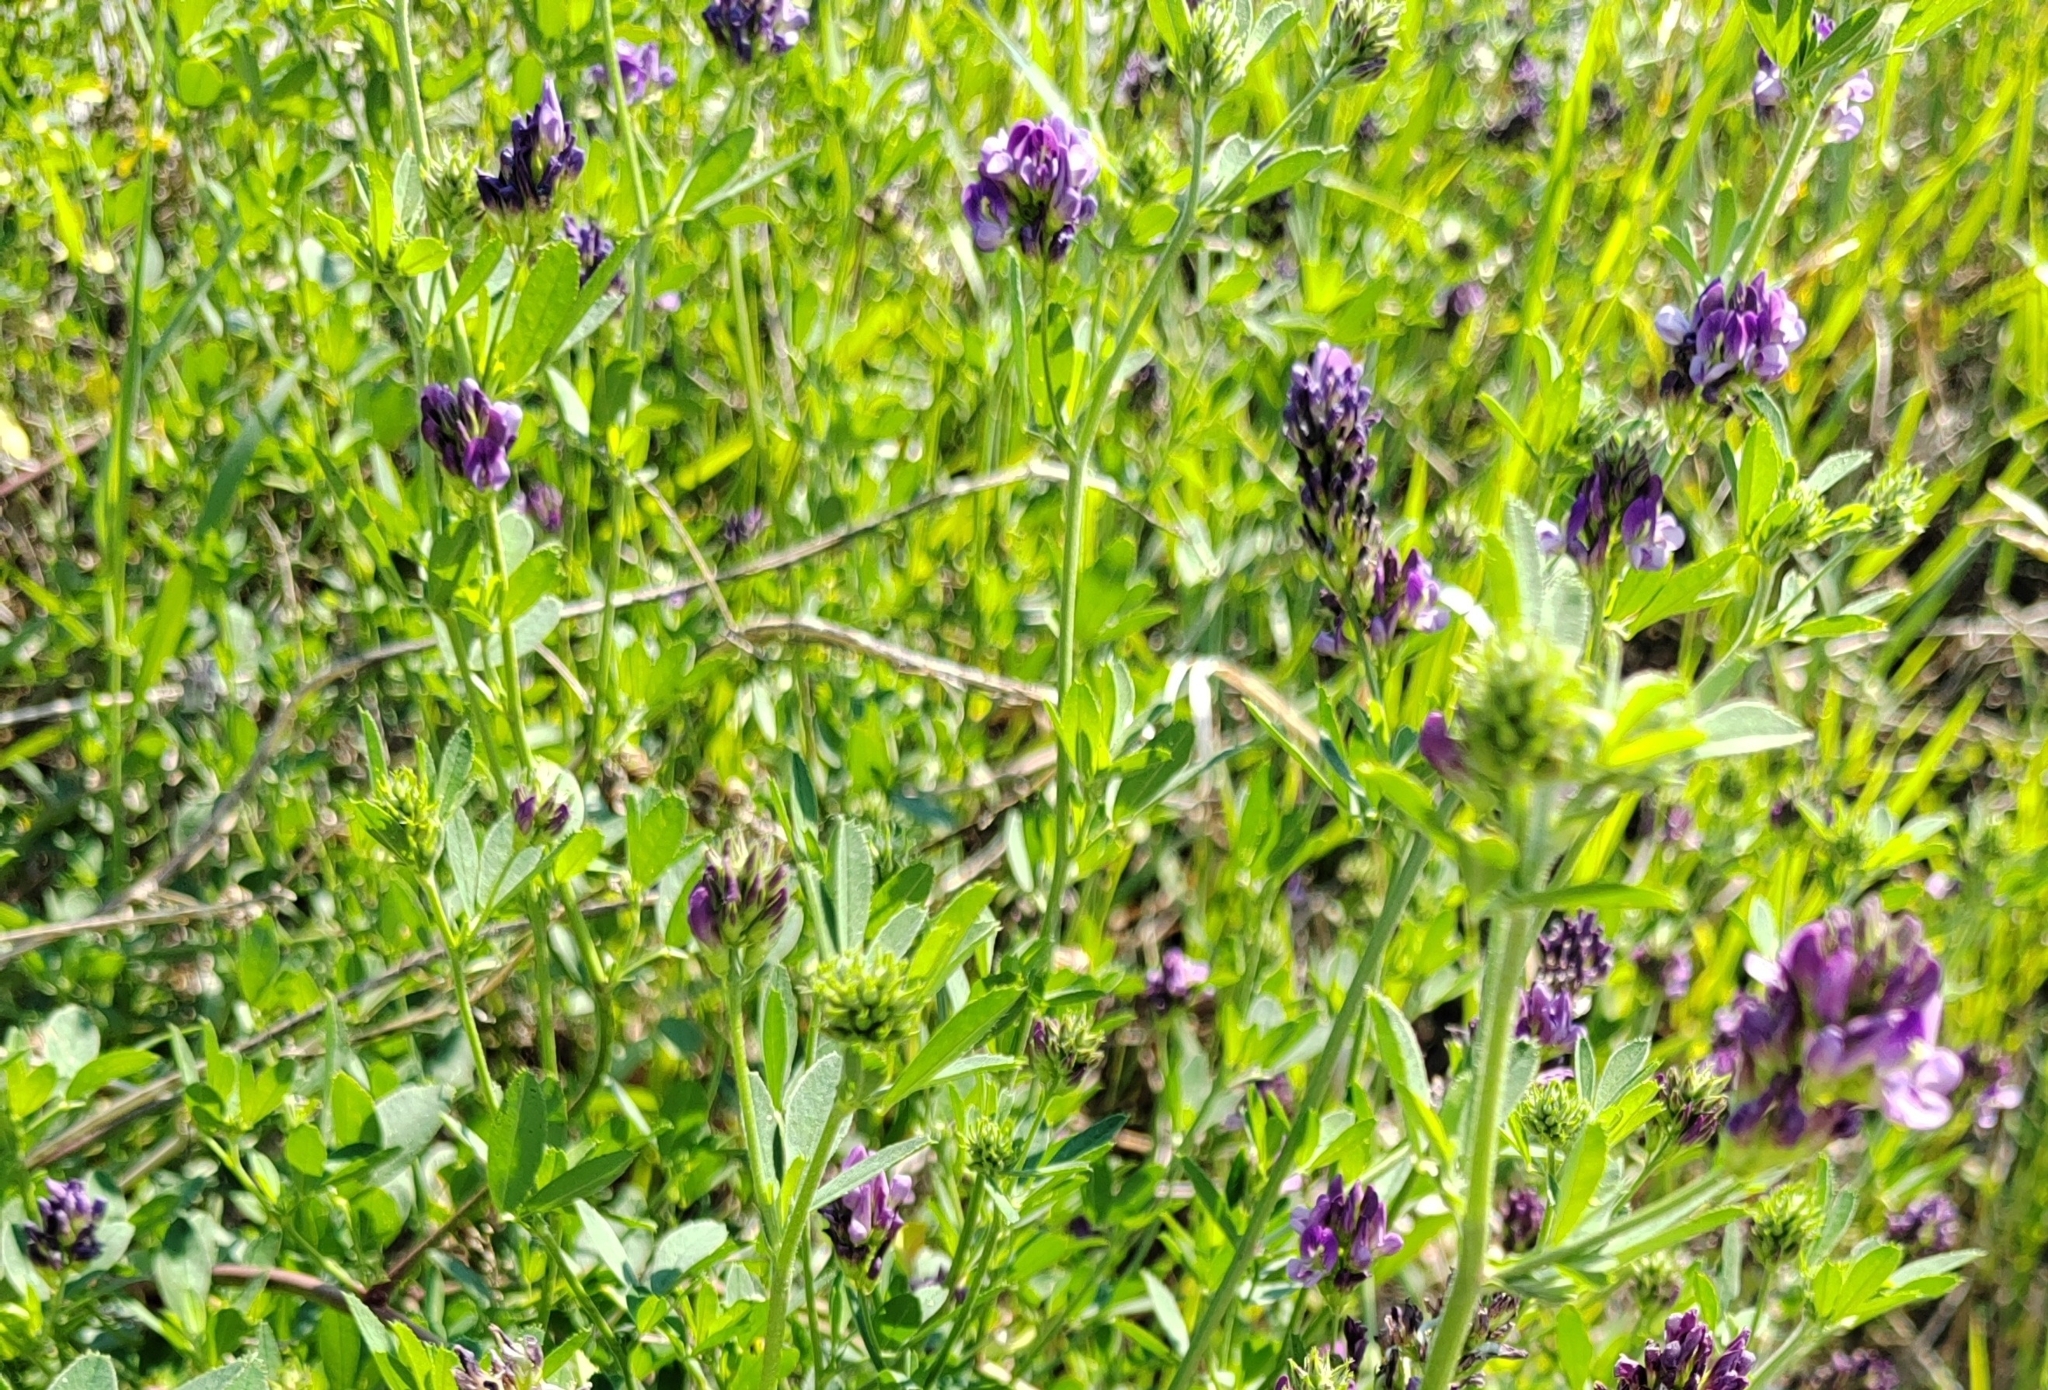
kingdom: Plantae
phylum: Tracheophyta
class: Magnoliopsida
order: Fabales
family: Fabaceae
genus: Medicago
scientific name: Medicago varia
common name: Sand lucerne
